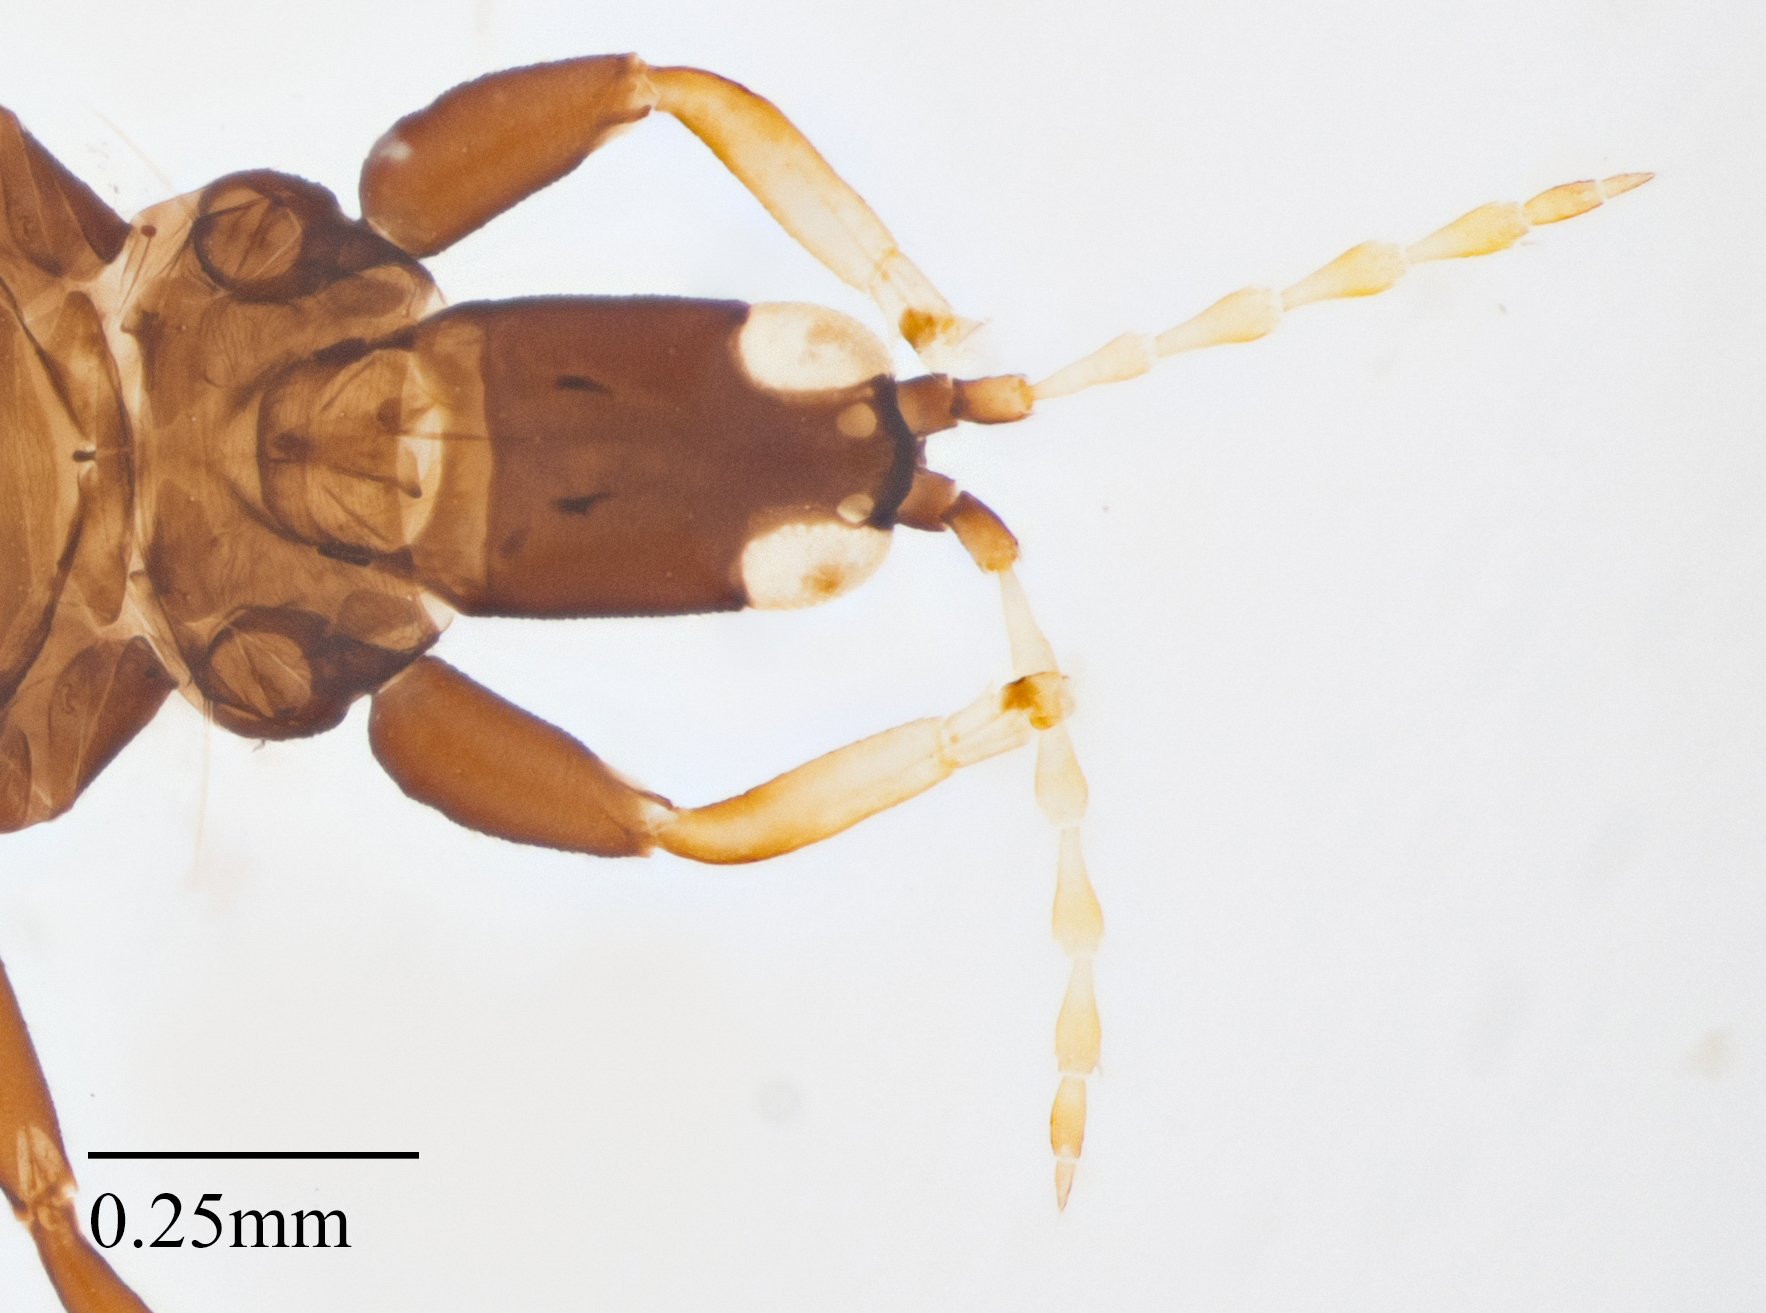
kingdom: Animalia
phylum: Arthropoda
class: Insecta
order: Thysanoptera
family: Phlaeothripidae
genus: Gynaikothrips
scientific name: Gynaikothrips ficorum
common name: Cuban laurel thrips
